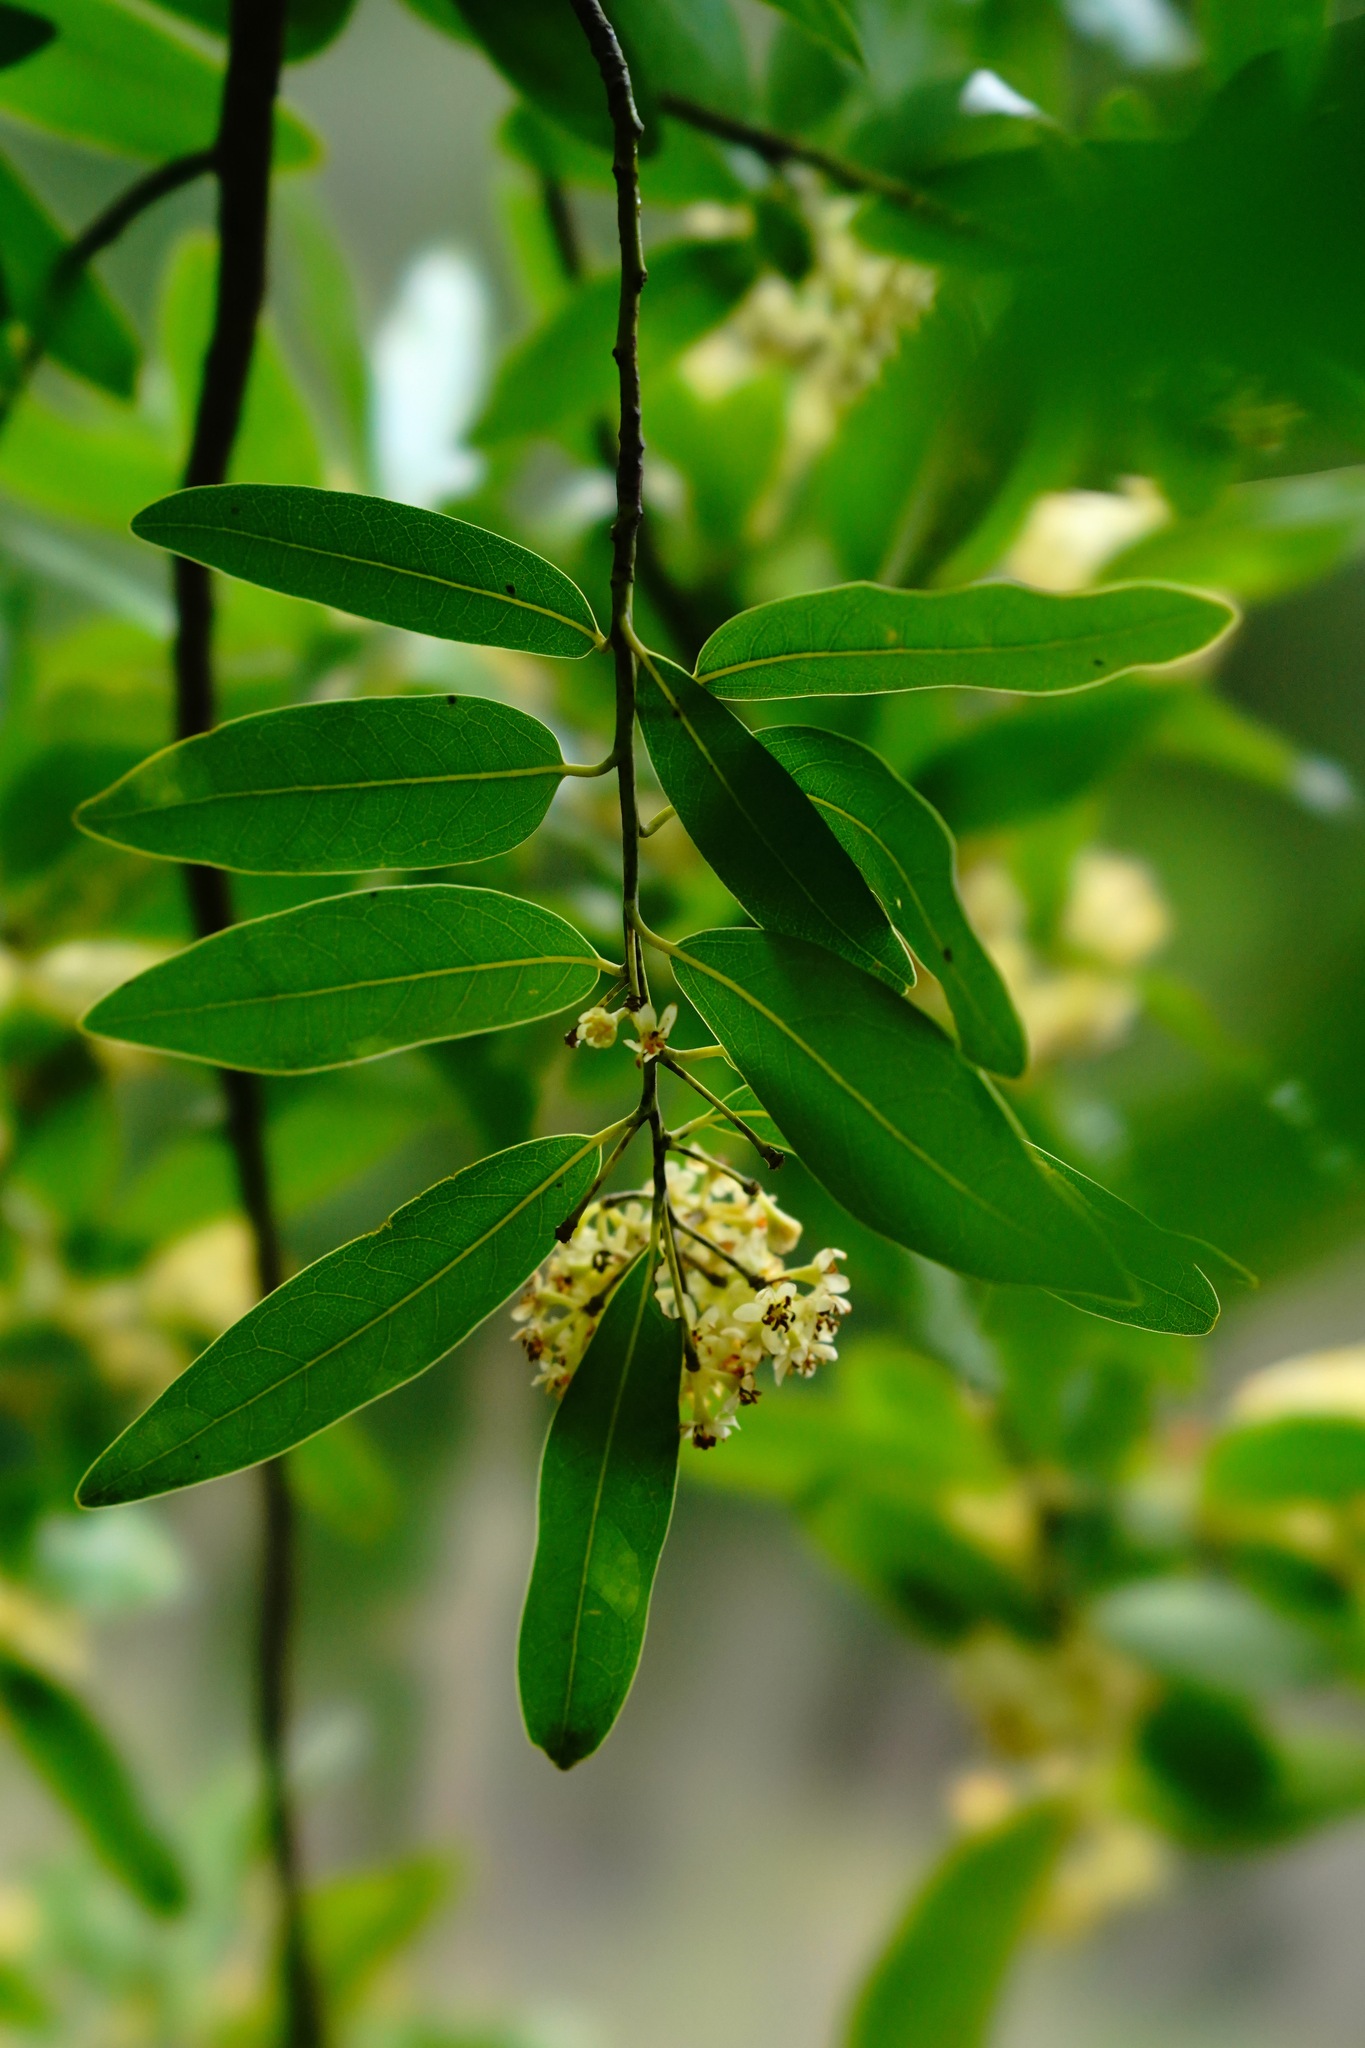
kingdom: Plantae
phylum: Tracheophyta
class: Magnoliopsida
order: Laurales
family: Lauraceae
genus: Umbellularia
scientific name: Umbellularia californica
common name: California bay
